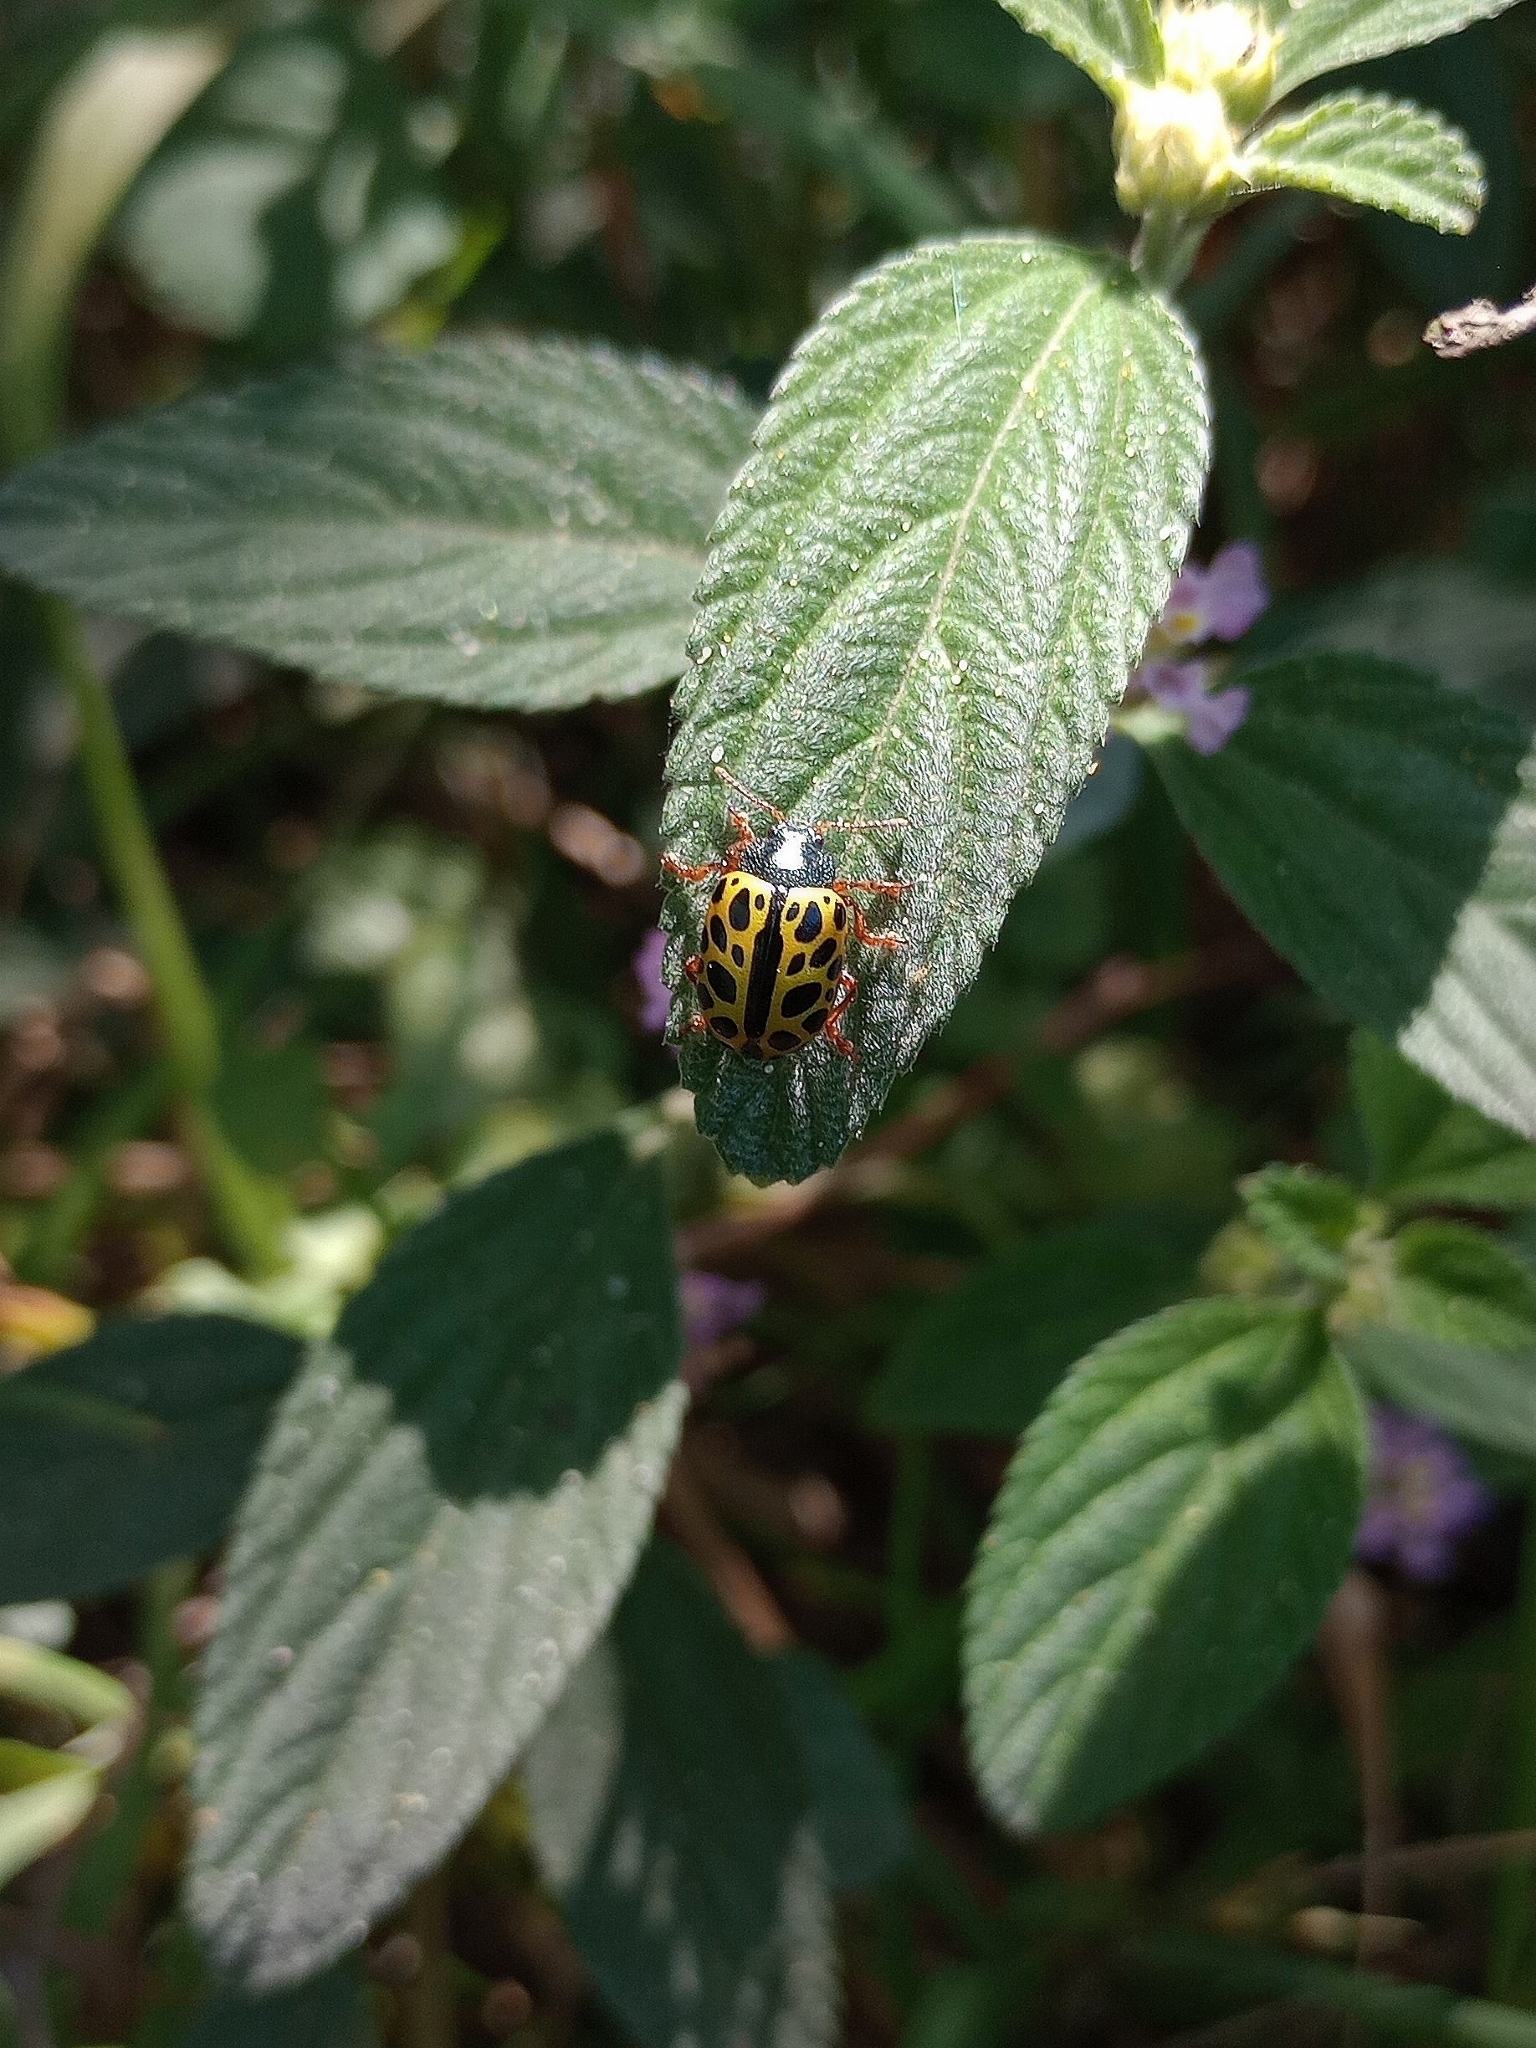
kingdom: Animalia
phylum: Arthropoda
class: Insecta
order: Coleoptera
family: Chrysomelidae
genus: Calligrapha
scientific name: Calligrapha polyspila
